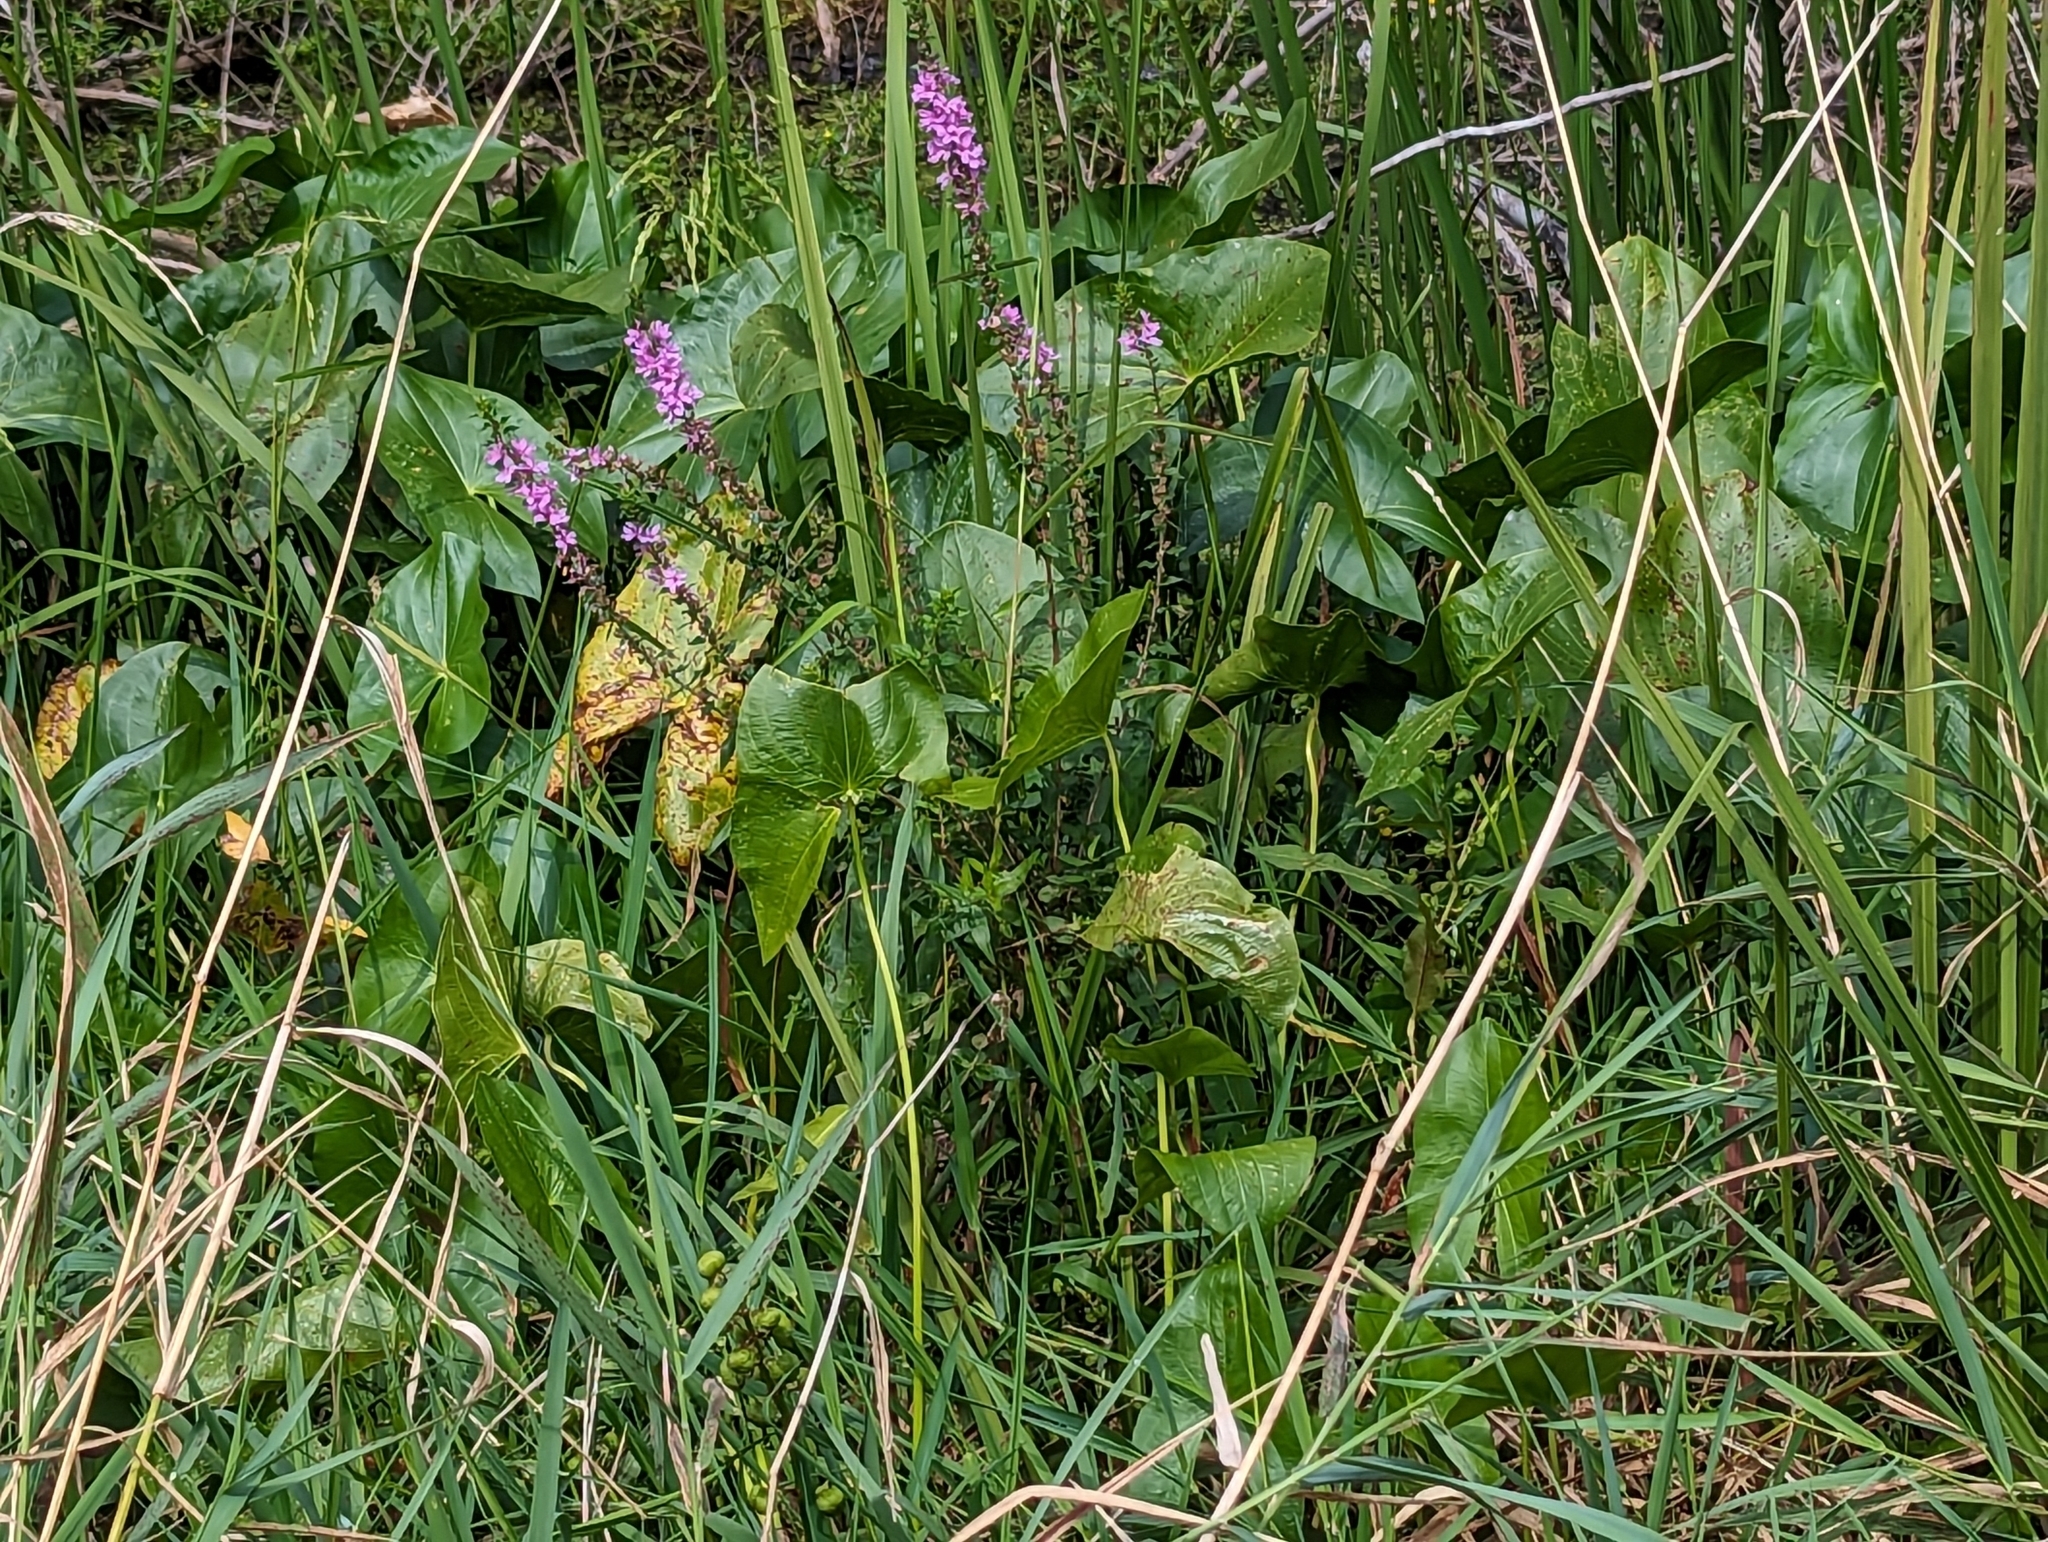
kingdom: Plantae
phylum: Tracheophyta
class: Magnoliopsida
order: Myrtales
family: Lythraceae
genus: Lythrum
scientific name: Lythrum salicaria
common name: Purple loosestrife
